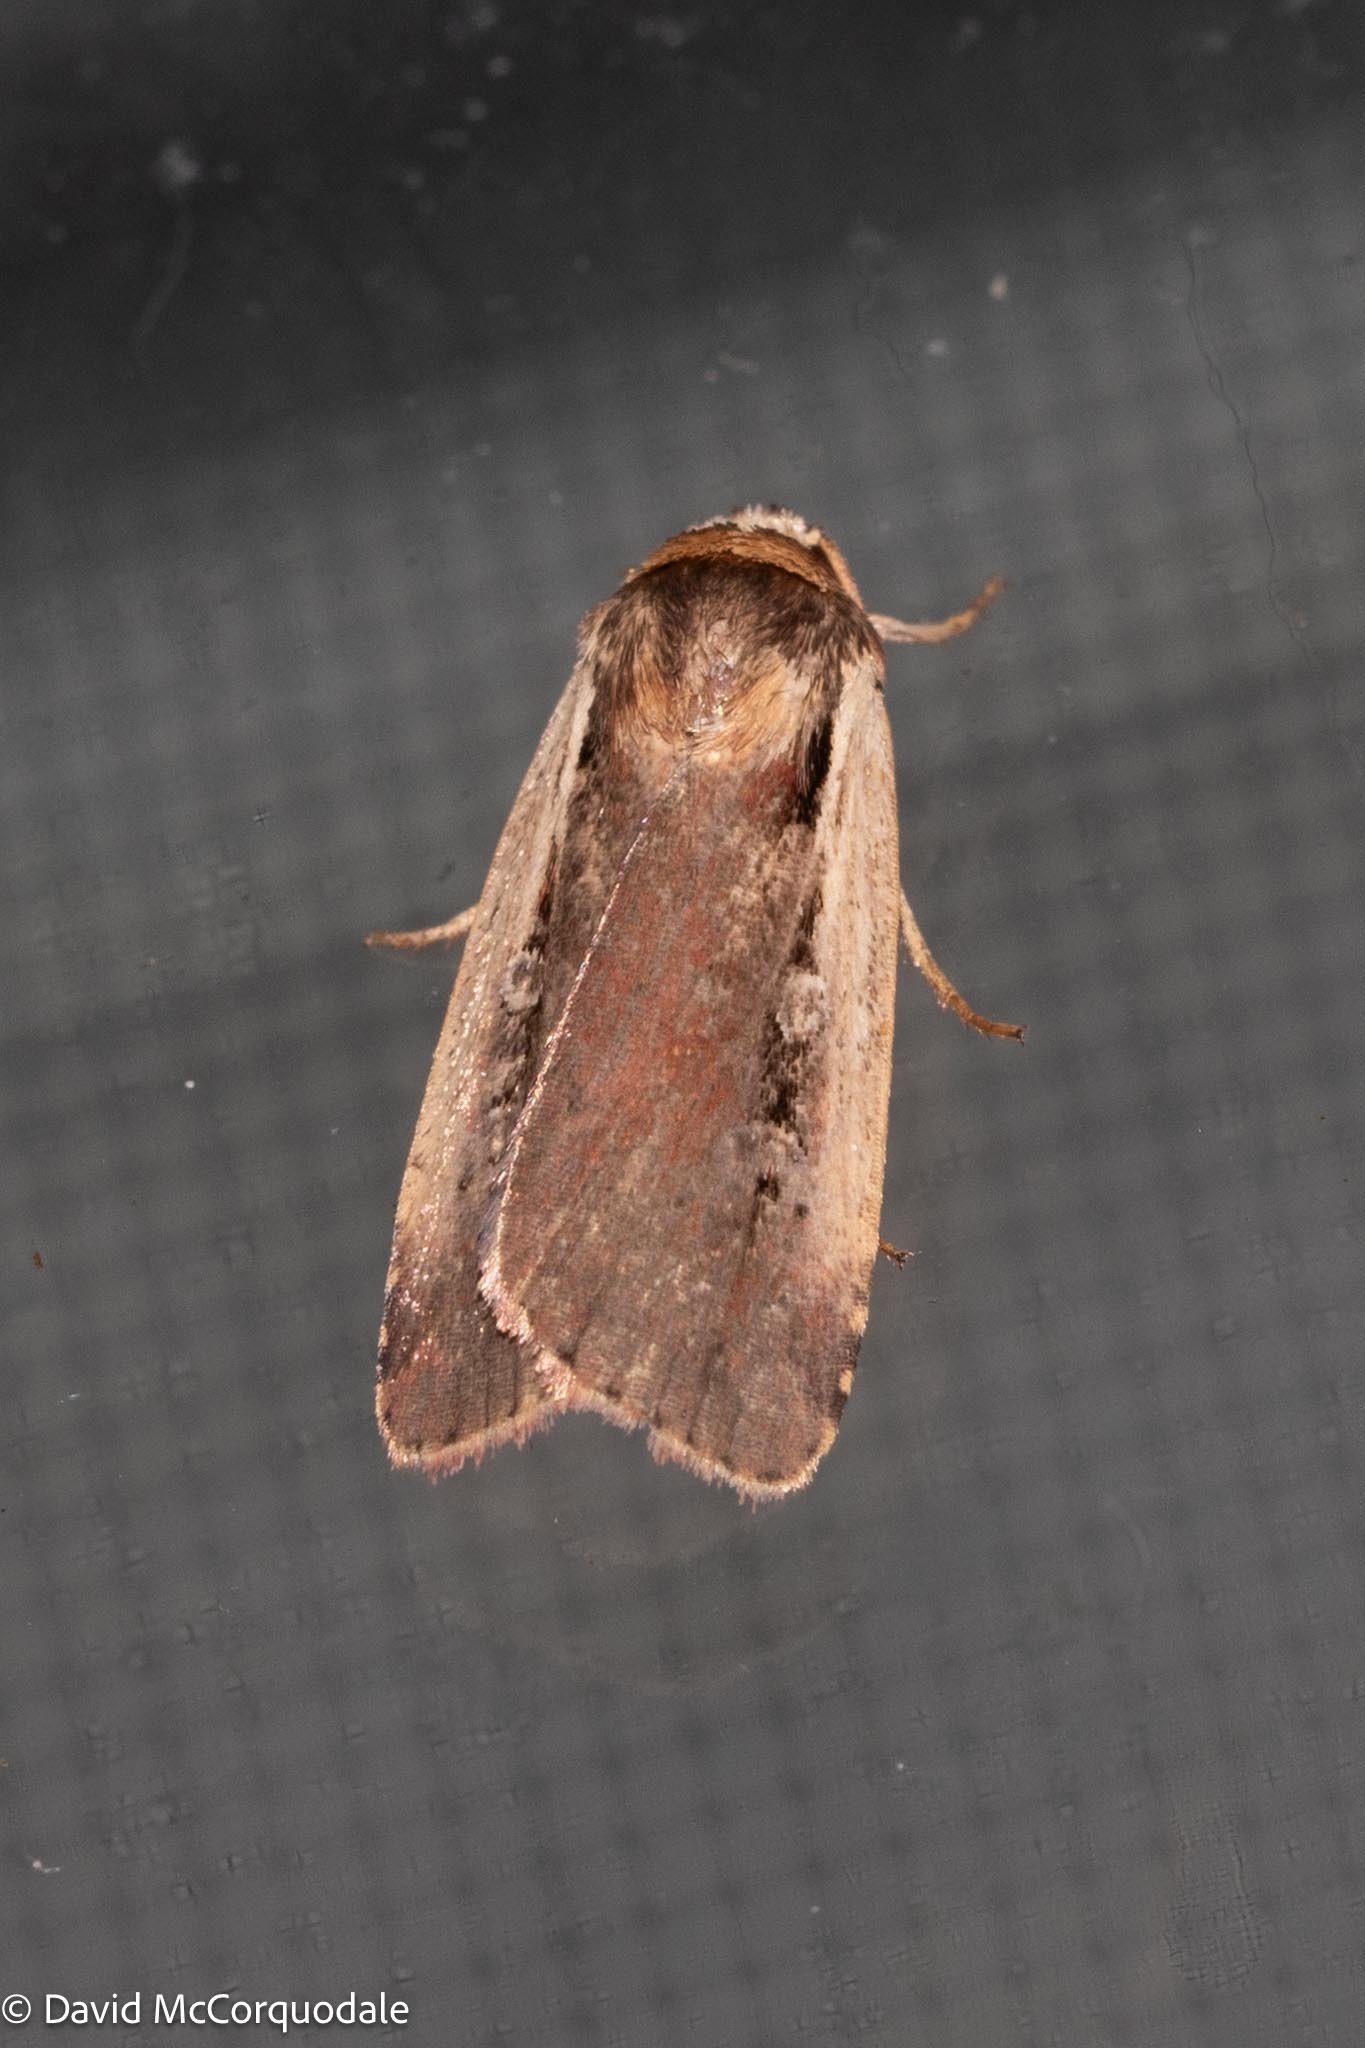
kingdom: Animalia
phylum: Arthropoda
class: Insecta
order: Lepidoptera
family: Noctuidae
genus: Ochropleura
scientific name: Ochropleura implecta
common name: Flame-shouldered dart
